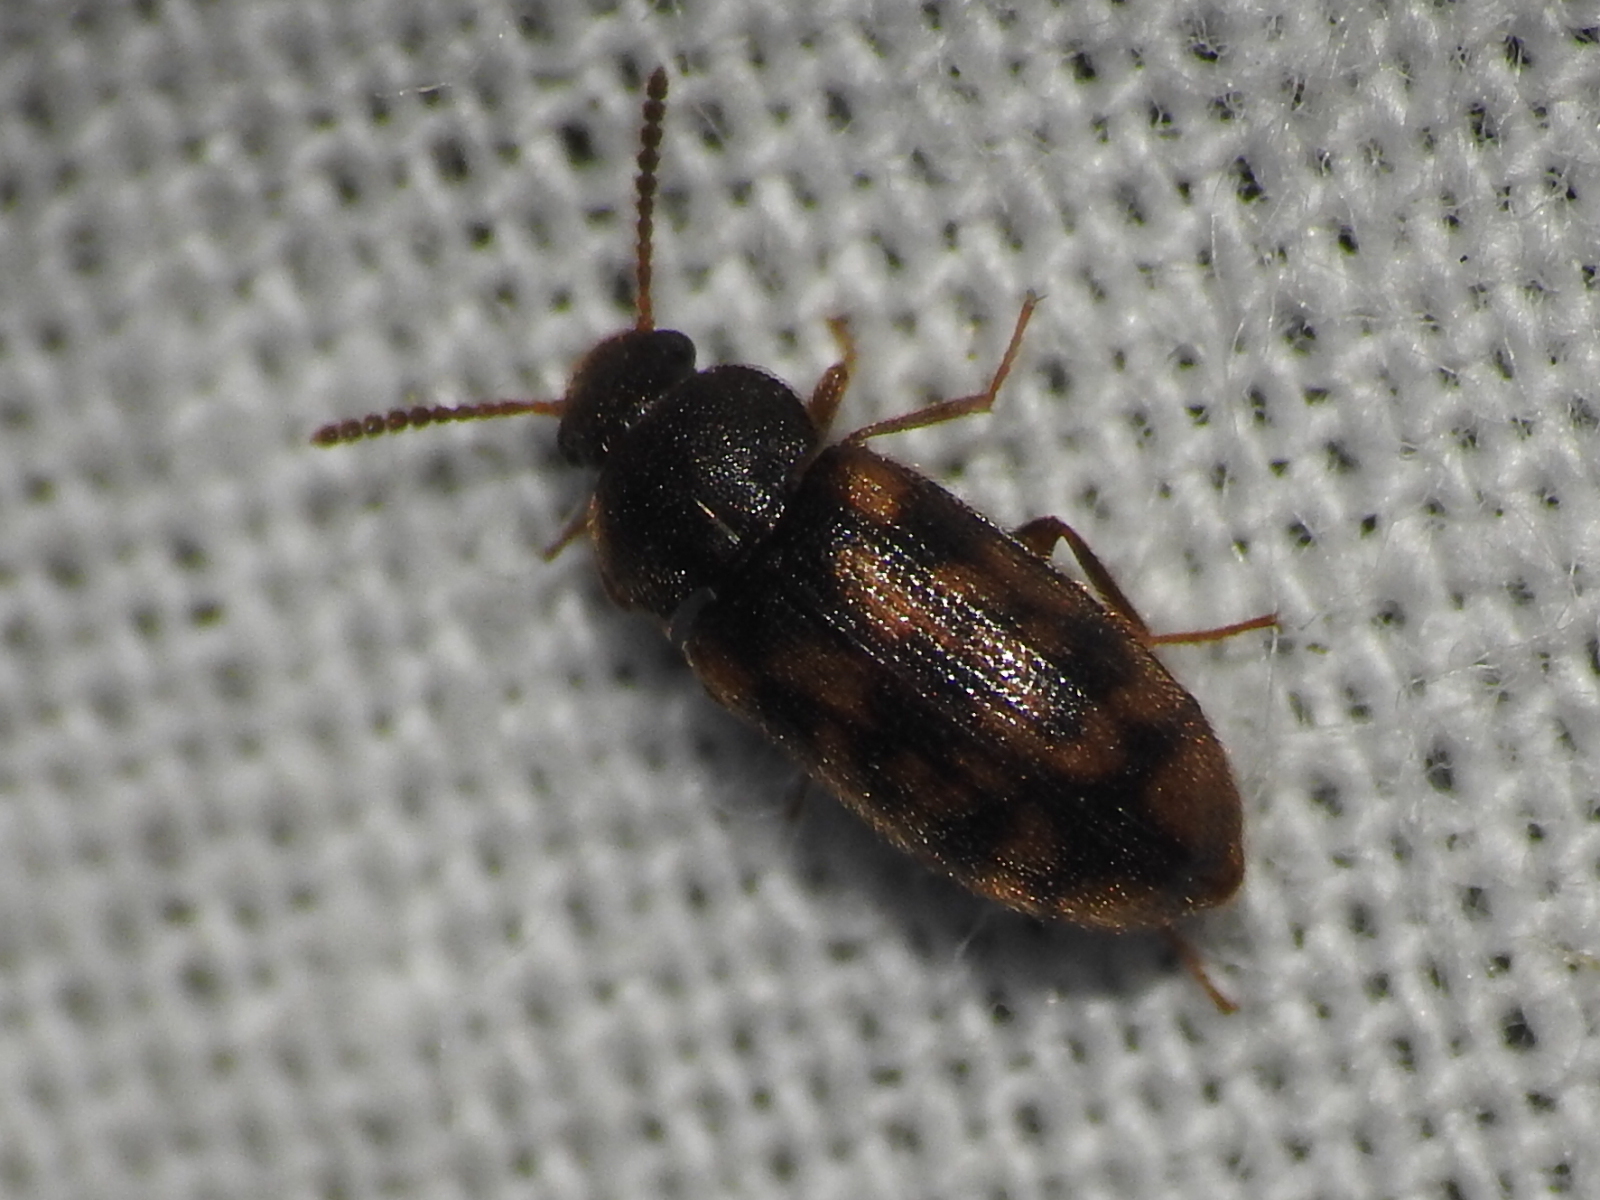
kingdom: Animalia
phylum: Arthropoda
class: Insecta
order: Coleoptera
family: Mycetophagidae
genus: Mycetophagus
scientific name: Mycetophagus pluripunctatus
